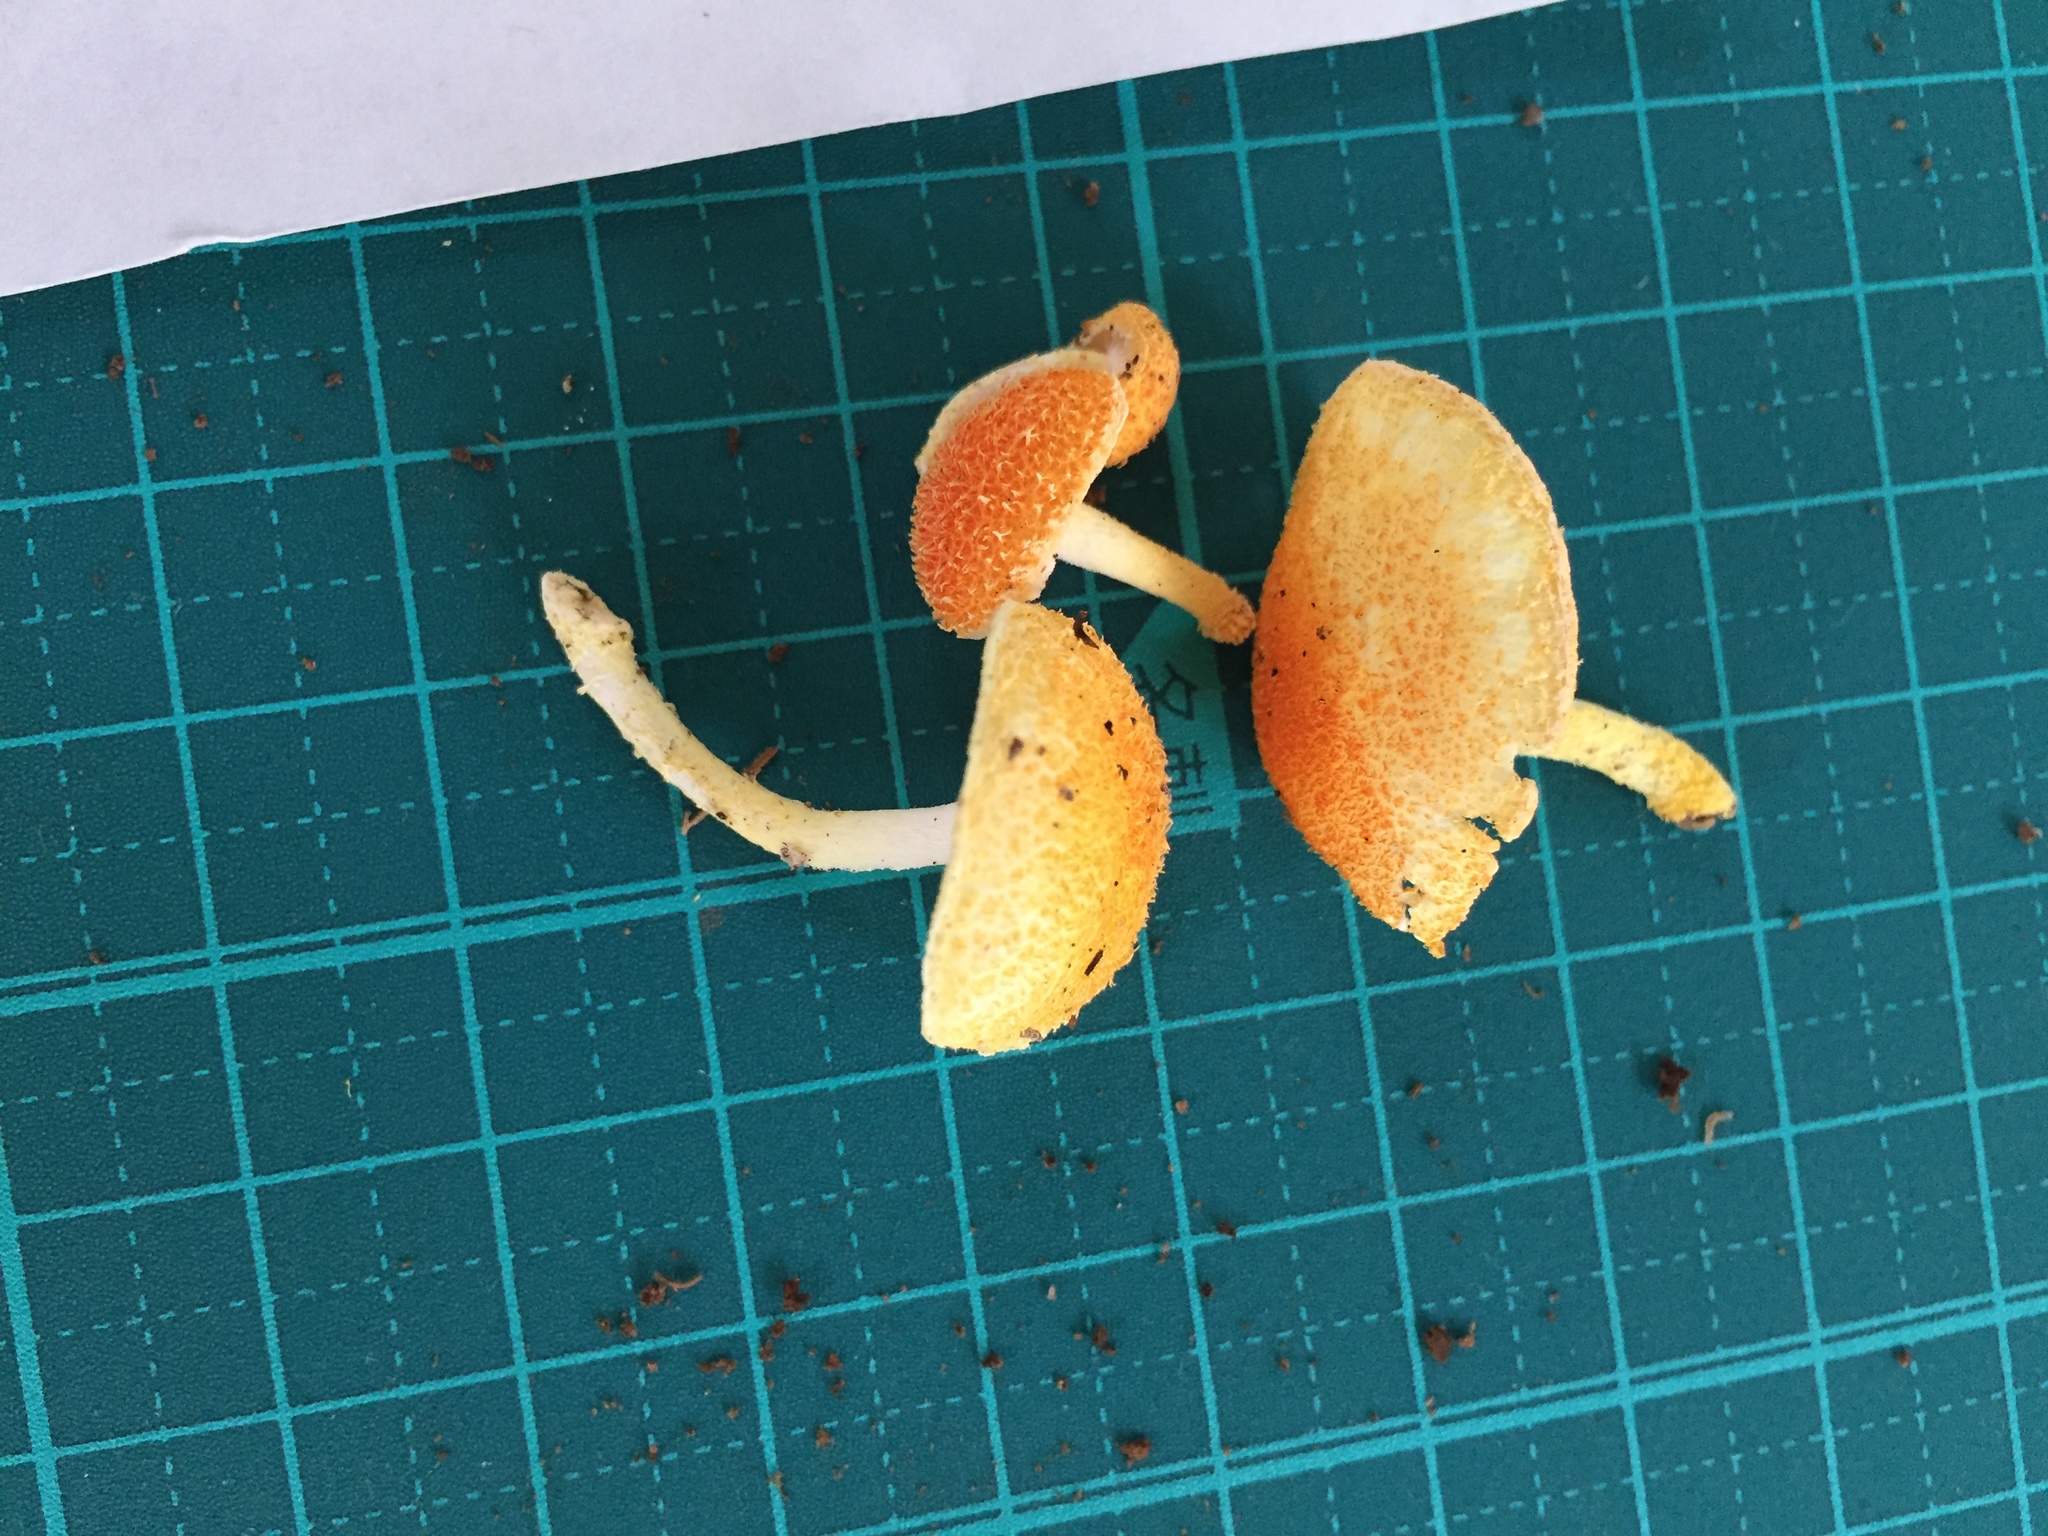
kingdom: Fungi
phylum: Basidiomycota
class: Agaricomycetes
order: Agaricales
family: Physalacriaceae
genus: Cyptotrama
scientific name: Cyptotrama asprata
